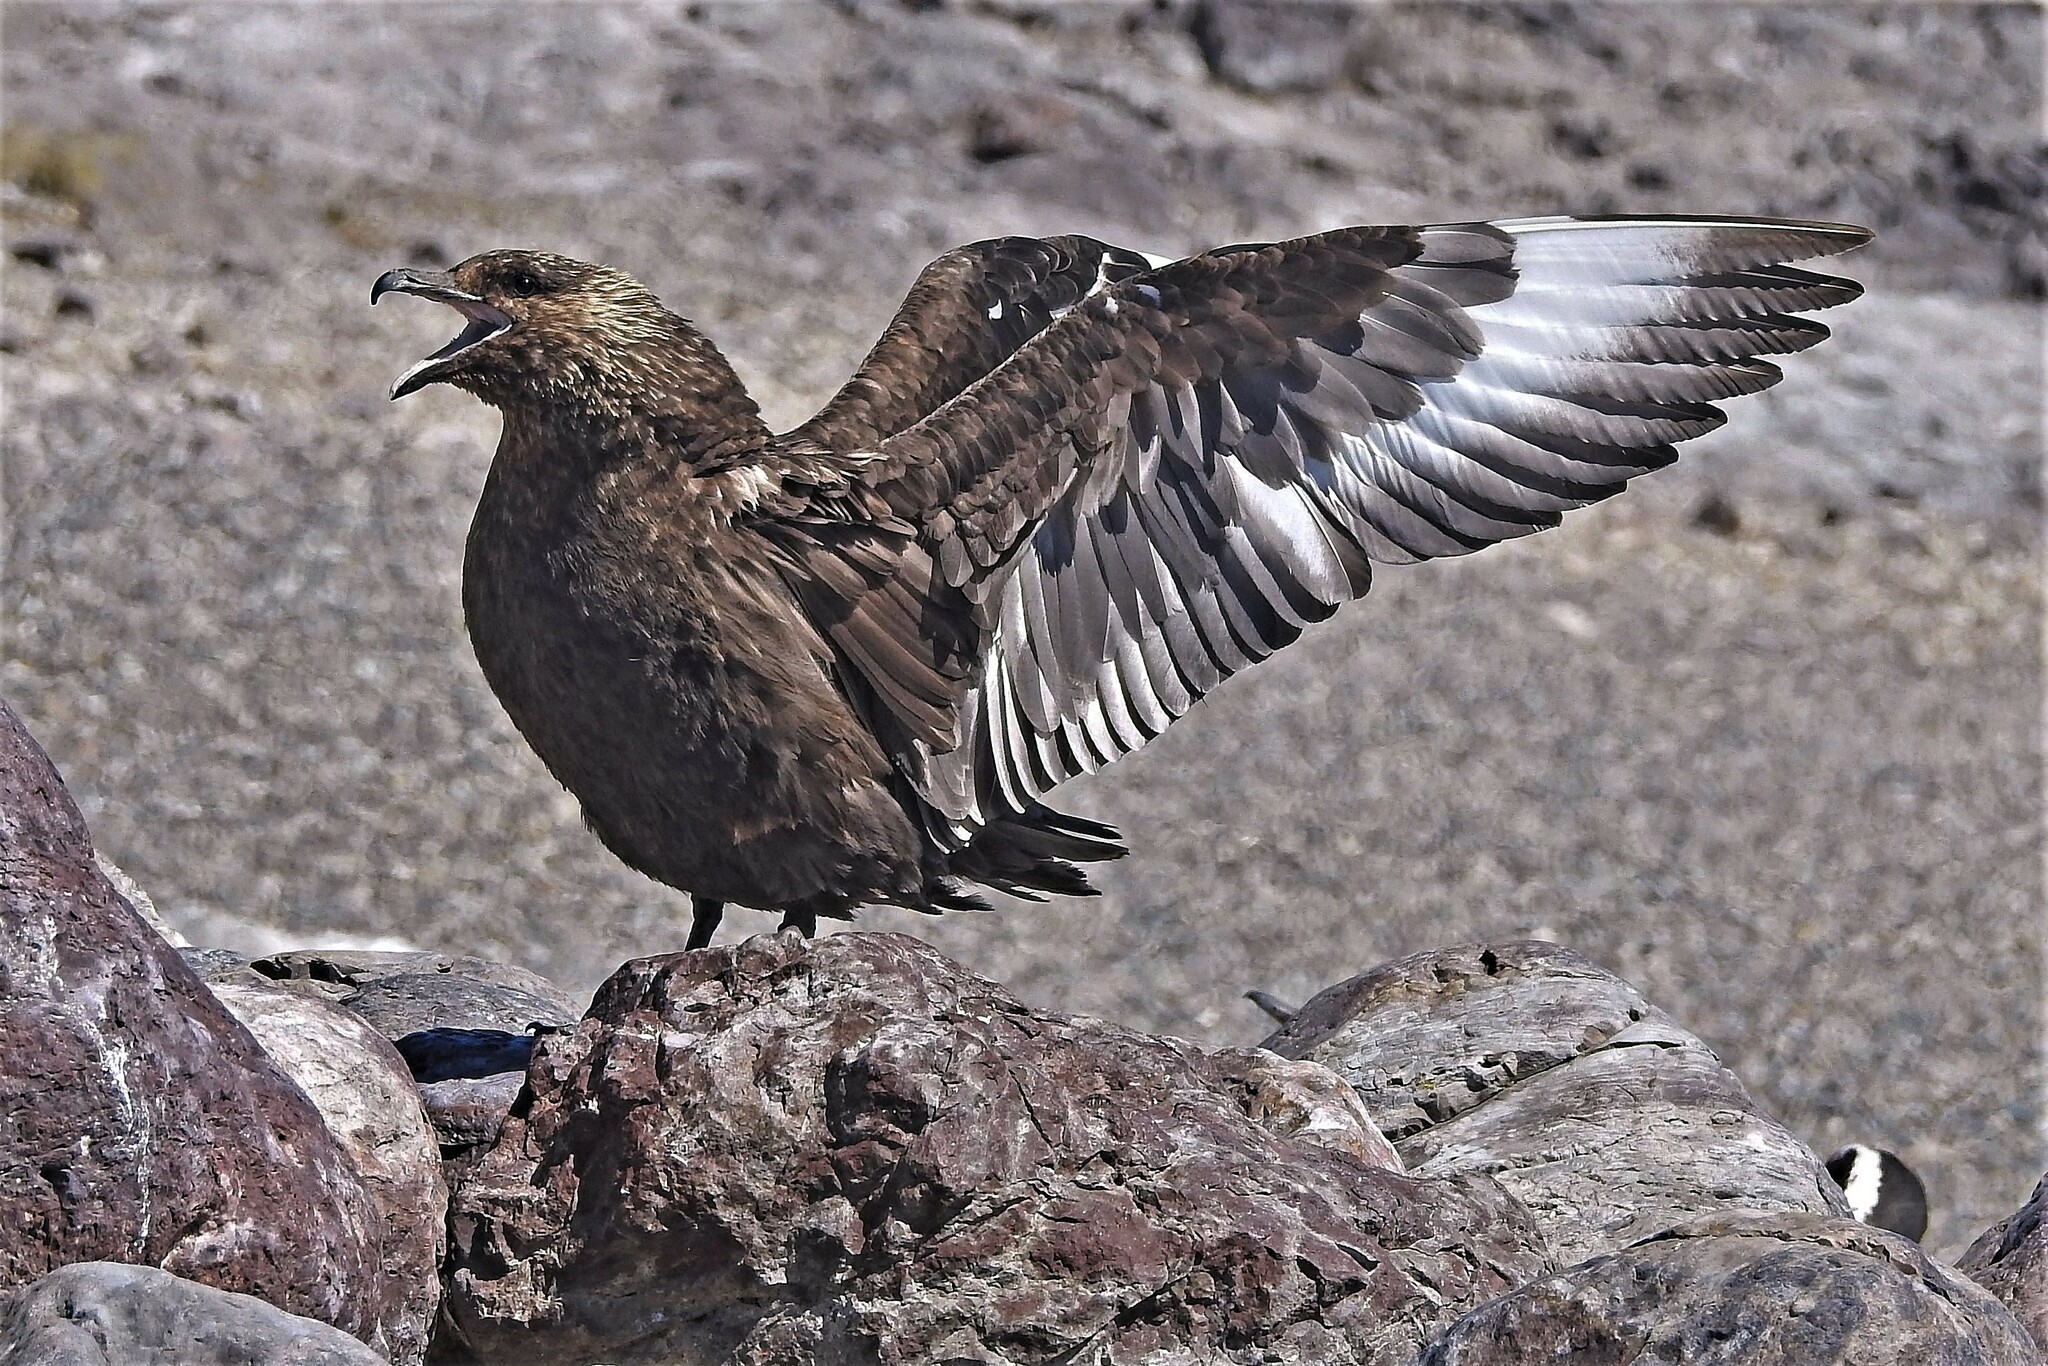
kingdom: Animalia
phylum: Chordata
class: Aves
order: Charadriiformes
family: Stercorariidae
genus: Stercorarius
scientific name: Stercorarius antarcticus
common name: Brown skua
